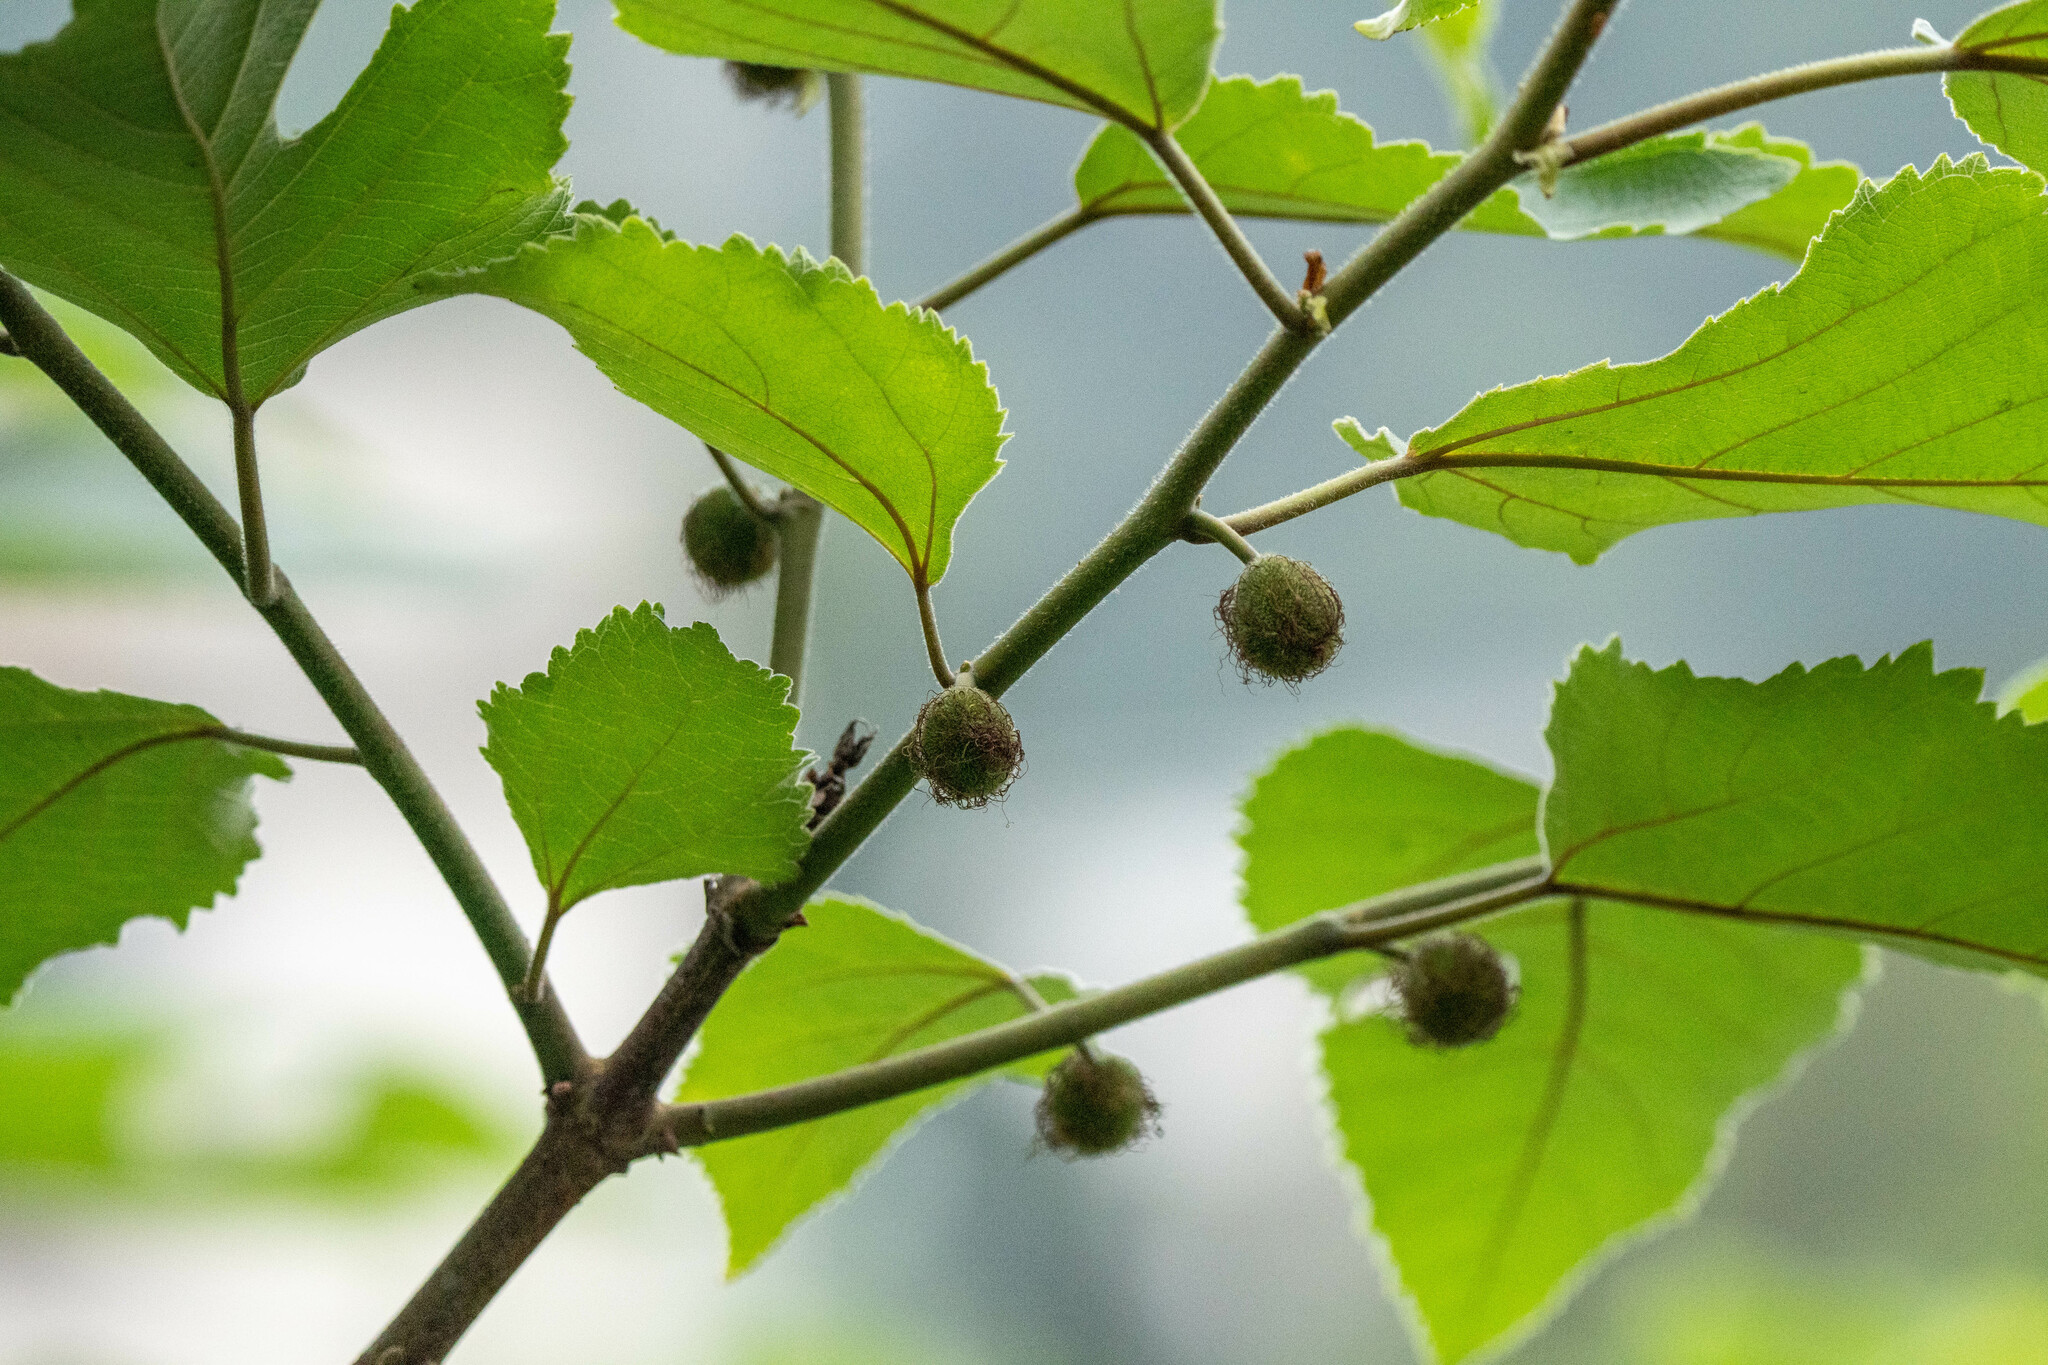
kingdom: Plantae
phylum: Tracheophyta
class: Magnoliopsida
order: Rosales
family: Moraceae
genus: Broussonetia
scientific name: Broussonetia papyrifera
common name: Paper mulberry
